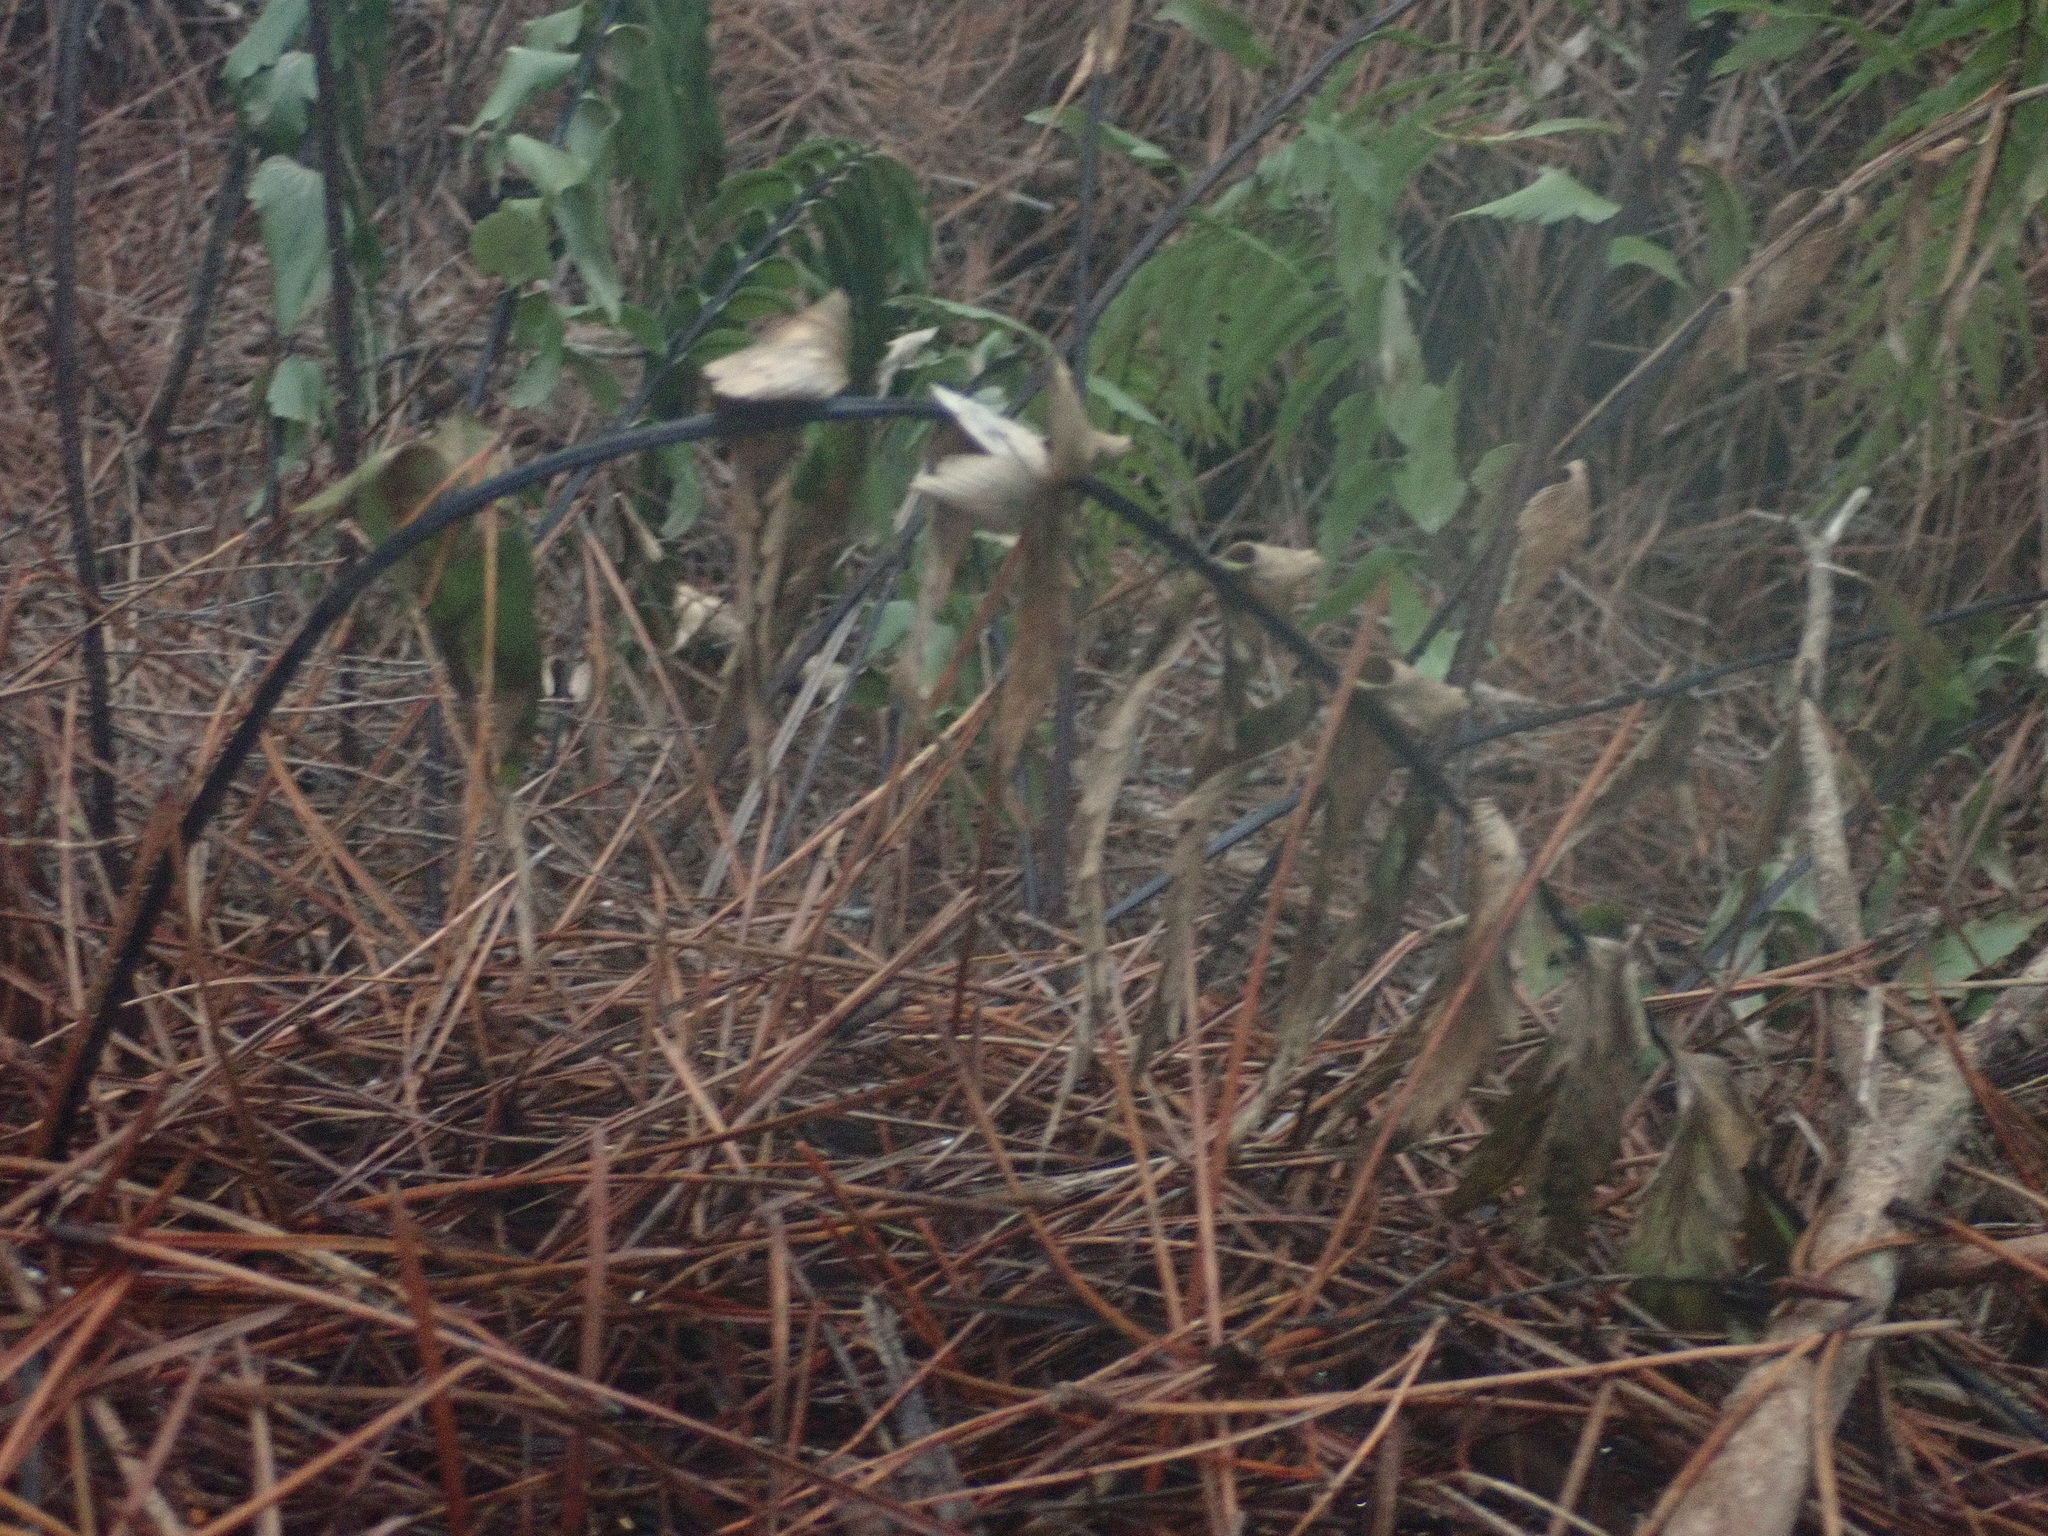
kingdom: Plantae
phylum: Tracheophyta
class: Polypodiopsida
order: Polypodiales
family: Aspleniaceae
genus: Asplenium
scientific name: Asplenium polyodon
